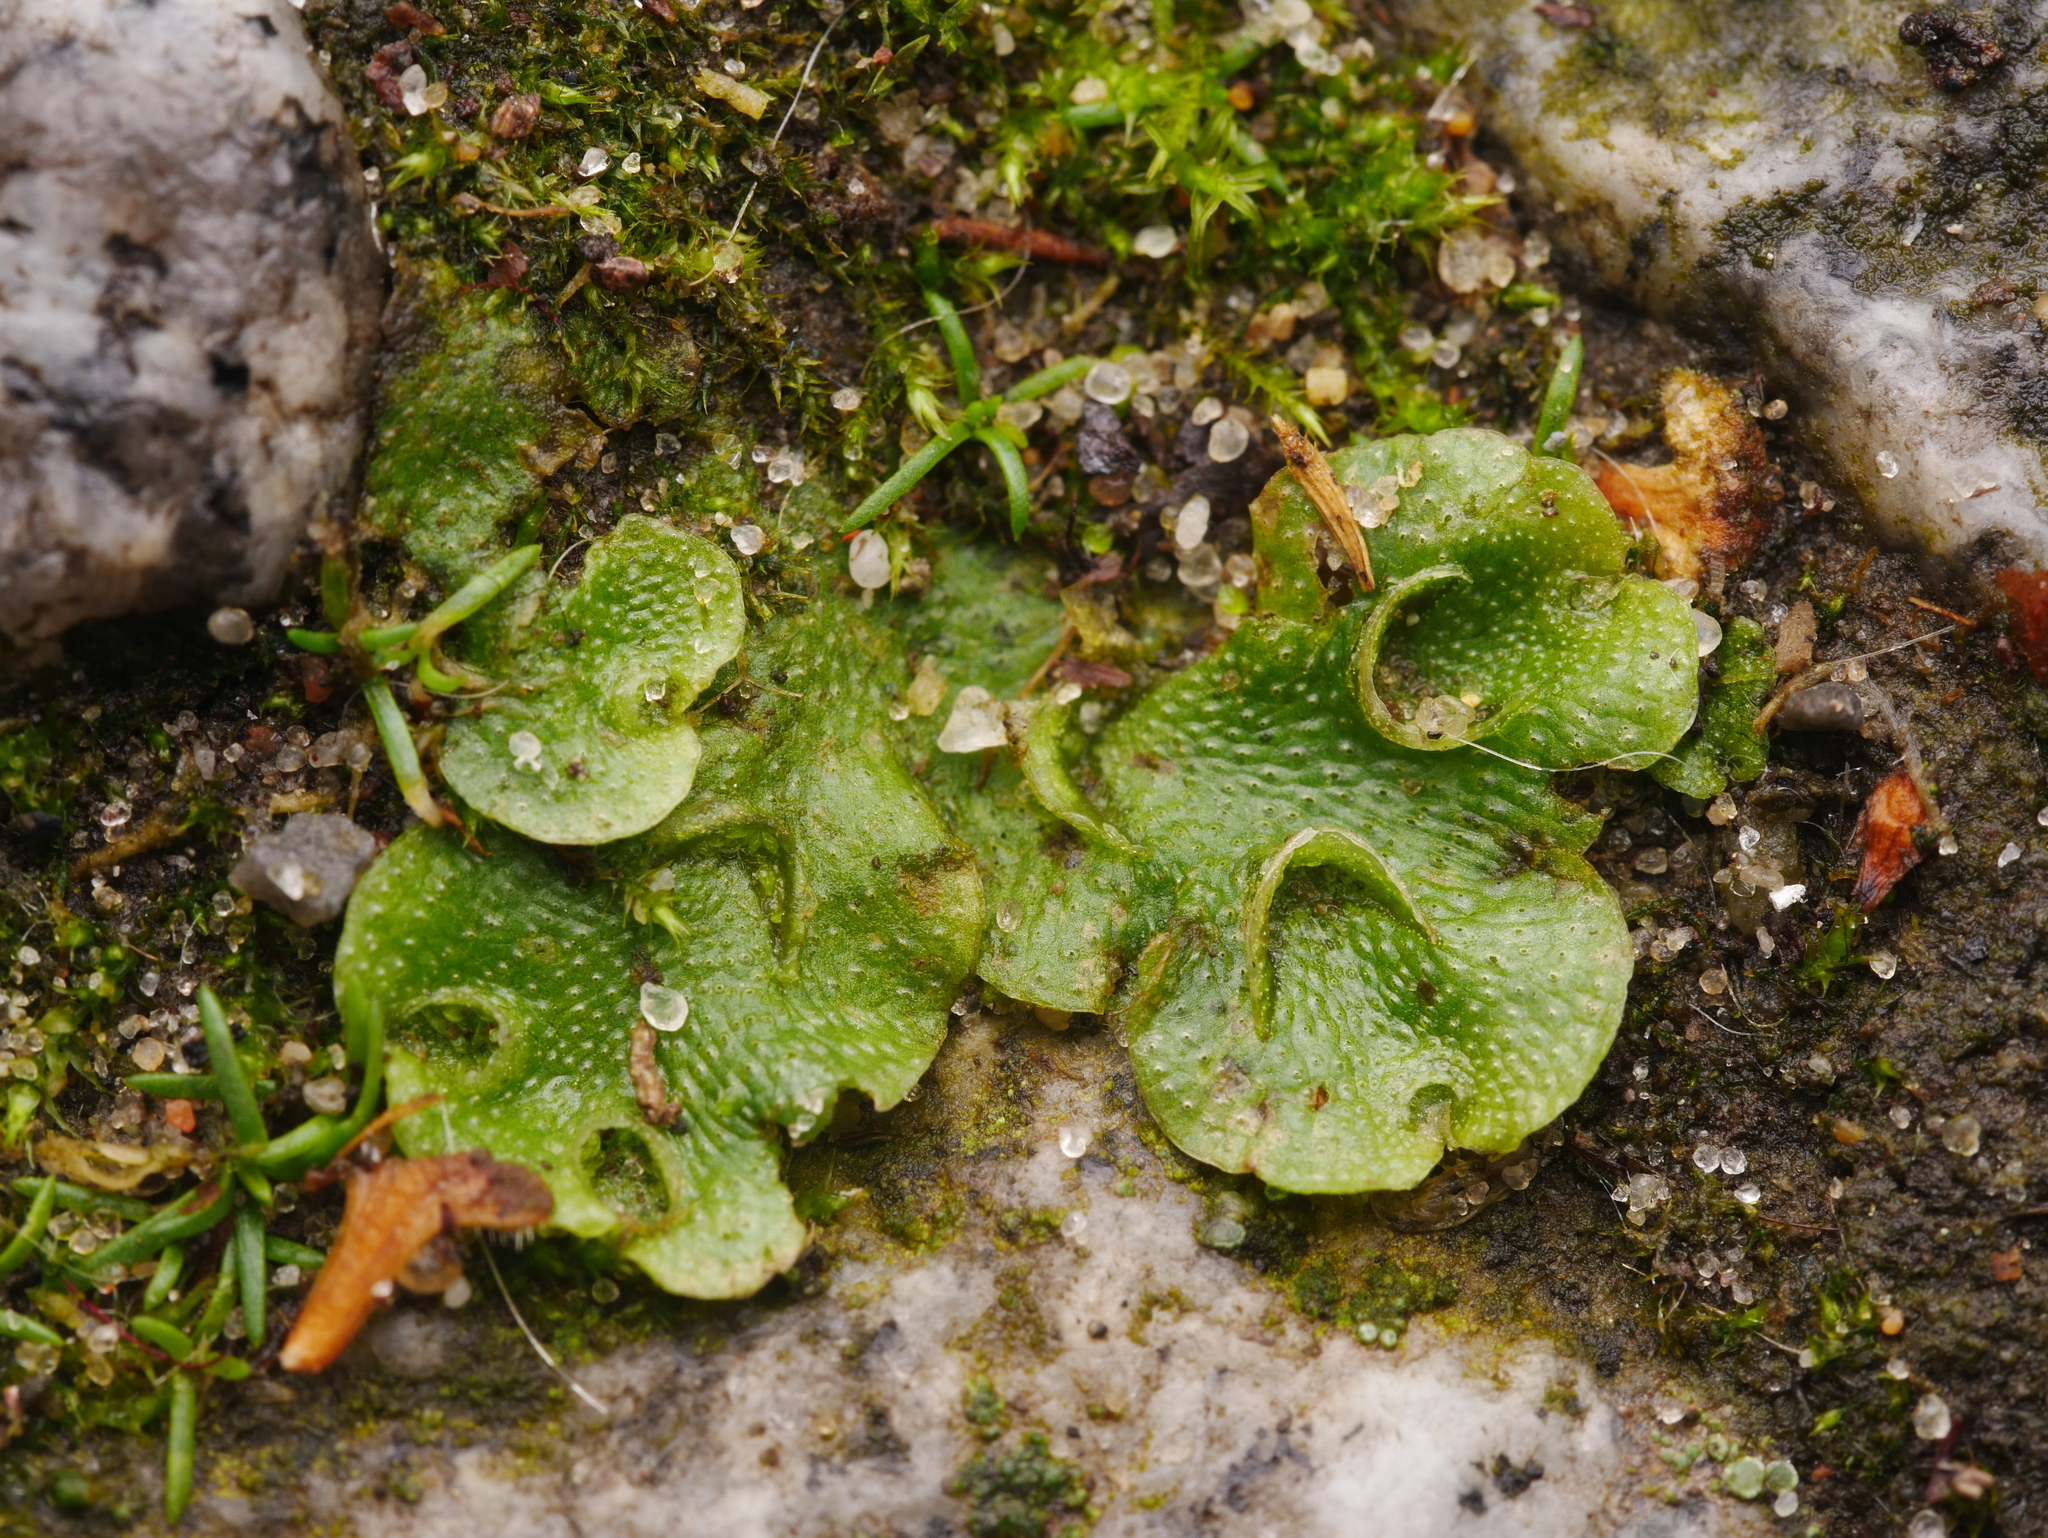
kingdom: Plantae
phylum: Marchantiophyta
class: Marchantiopsida
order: Lunulariales
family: Lunulariaceae
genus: Lunularia
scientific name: Lunularia cruciata
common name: Crescent-cup liverwort
